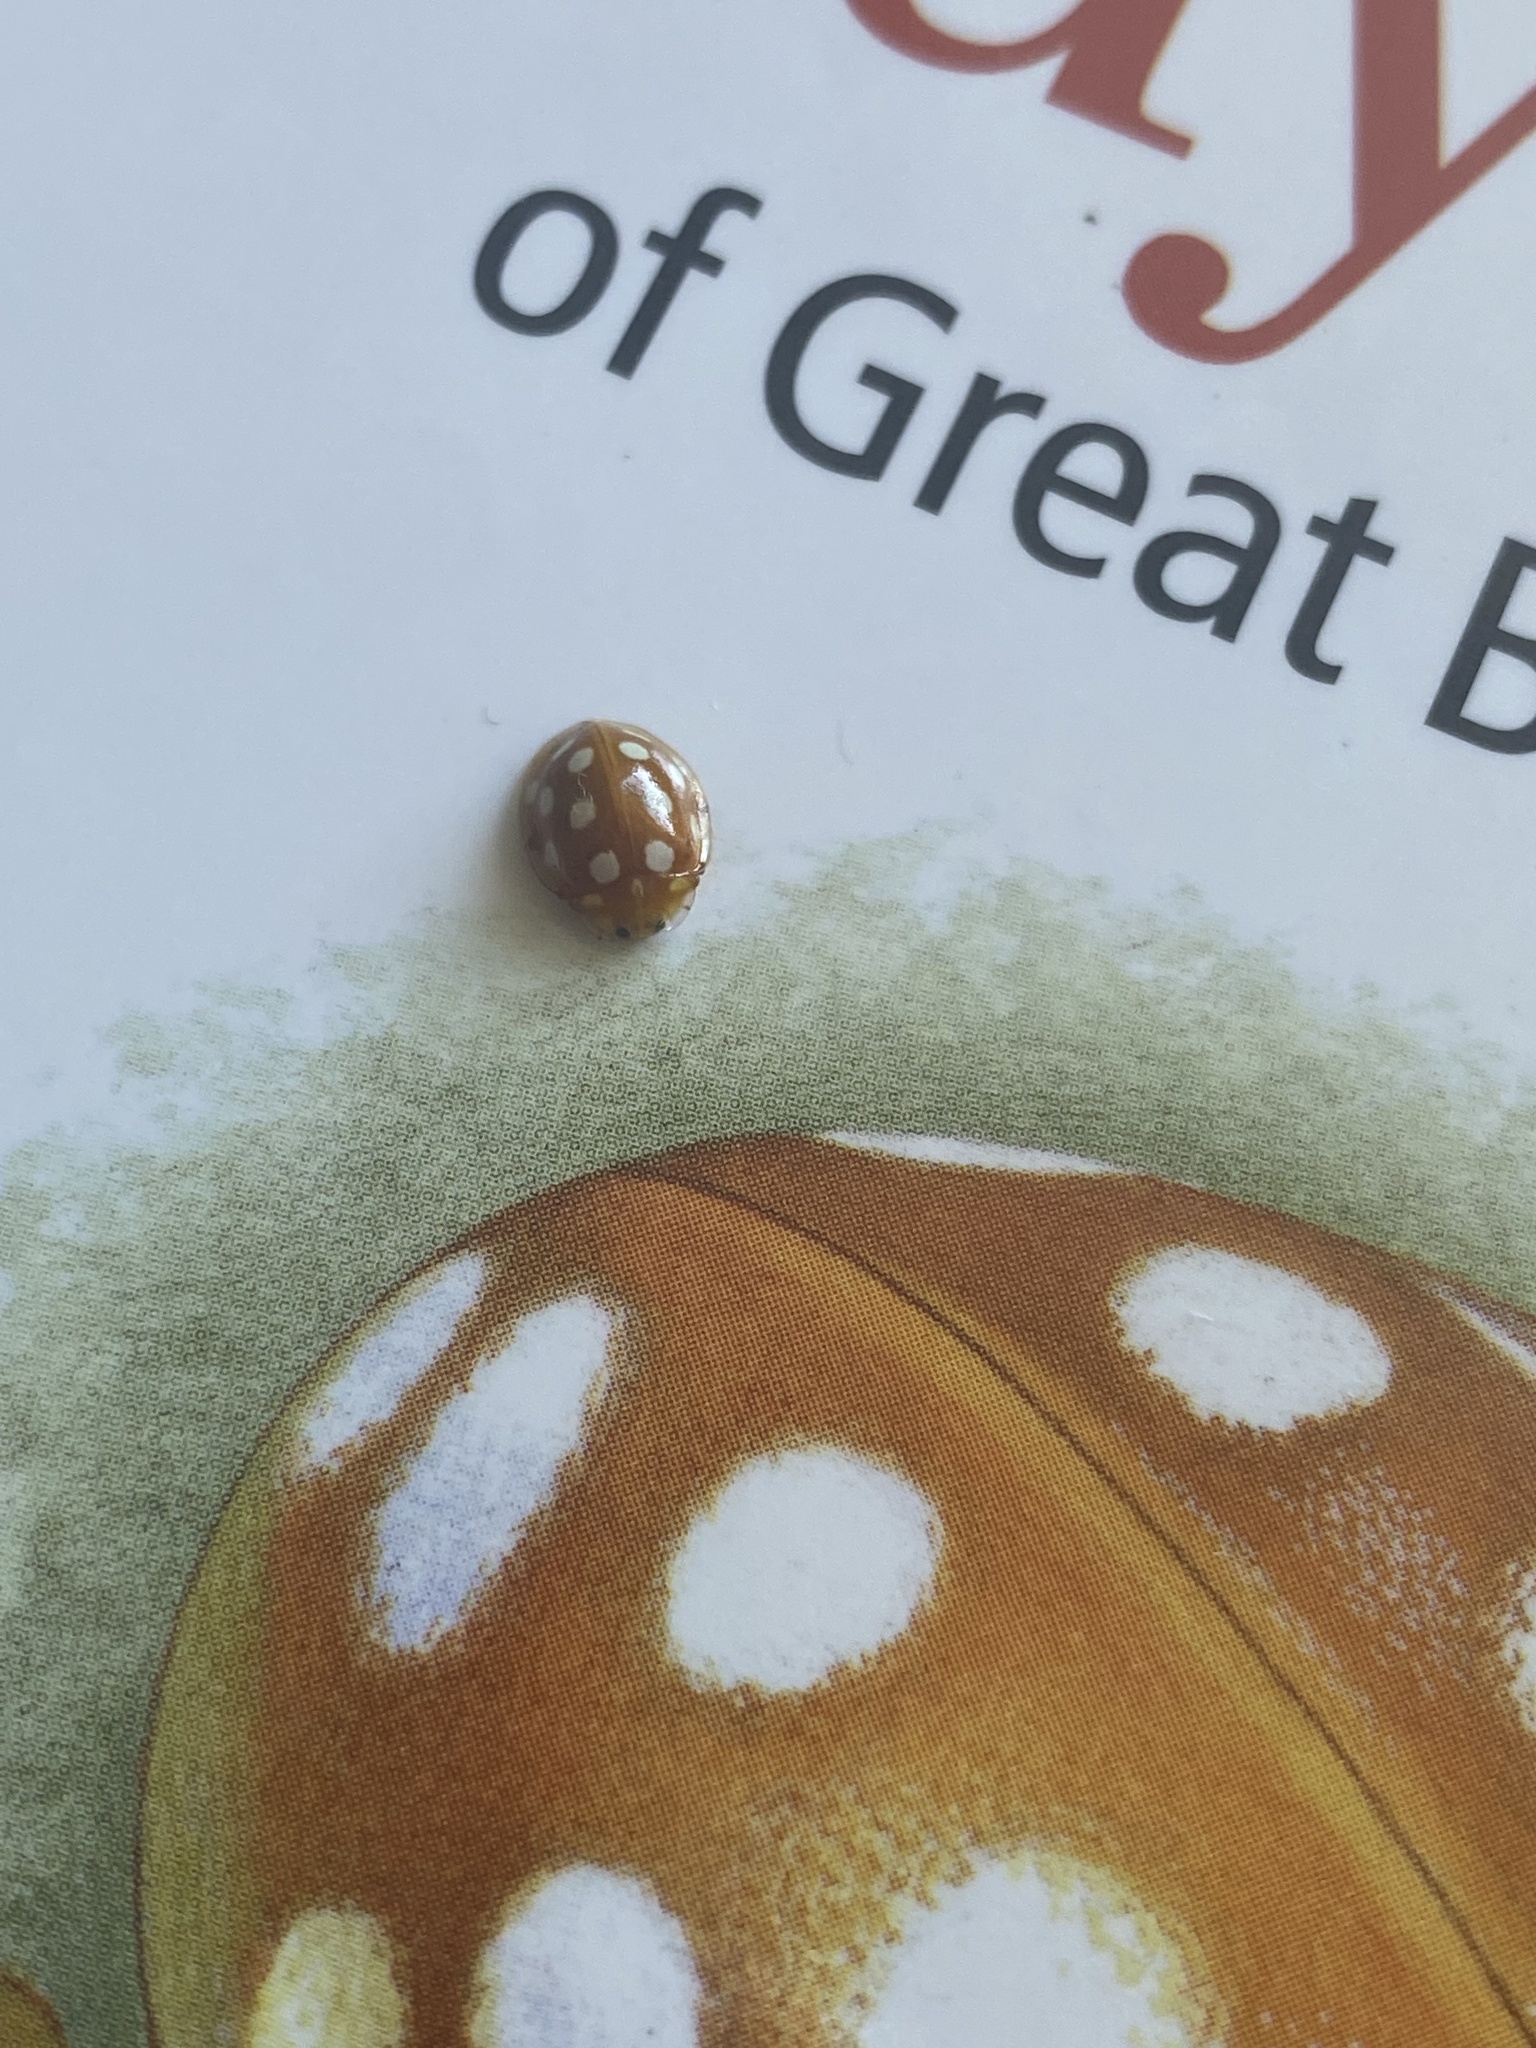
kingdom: Animalia
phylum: Arthropoda
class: Insecta
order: Coleoptera
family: Coccinellidae
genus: Halyzia
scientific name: Halyzia sedecimguttata
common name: Orange ladybird
